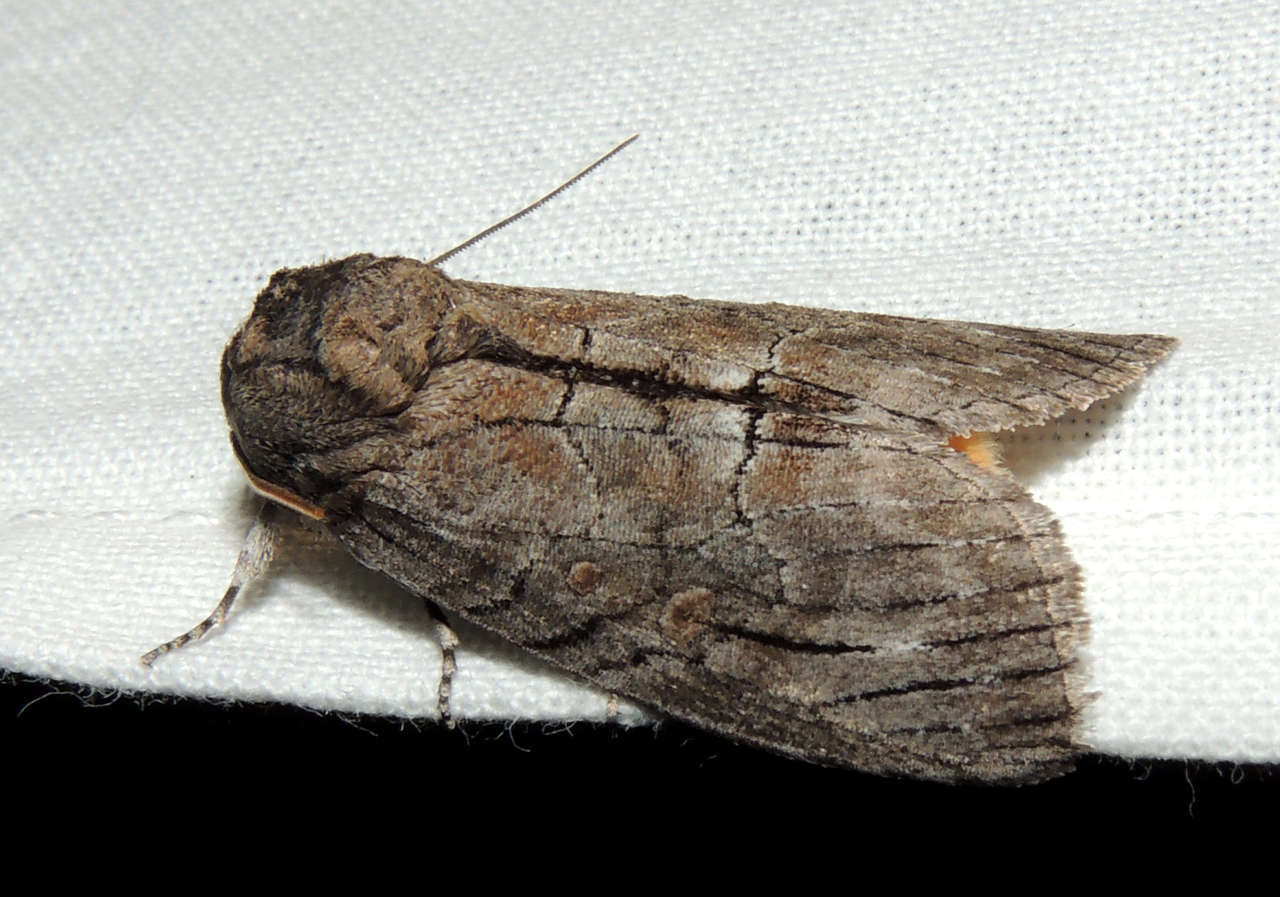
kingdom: Animalia
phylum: Arthropoda
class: Insecta
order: Lepidoptera
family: Oenosandridae
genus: Discophlebia
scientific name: Discophlebia catocalina
